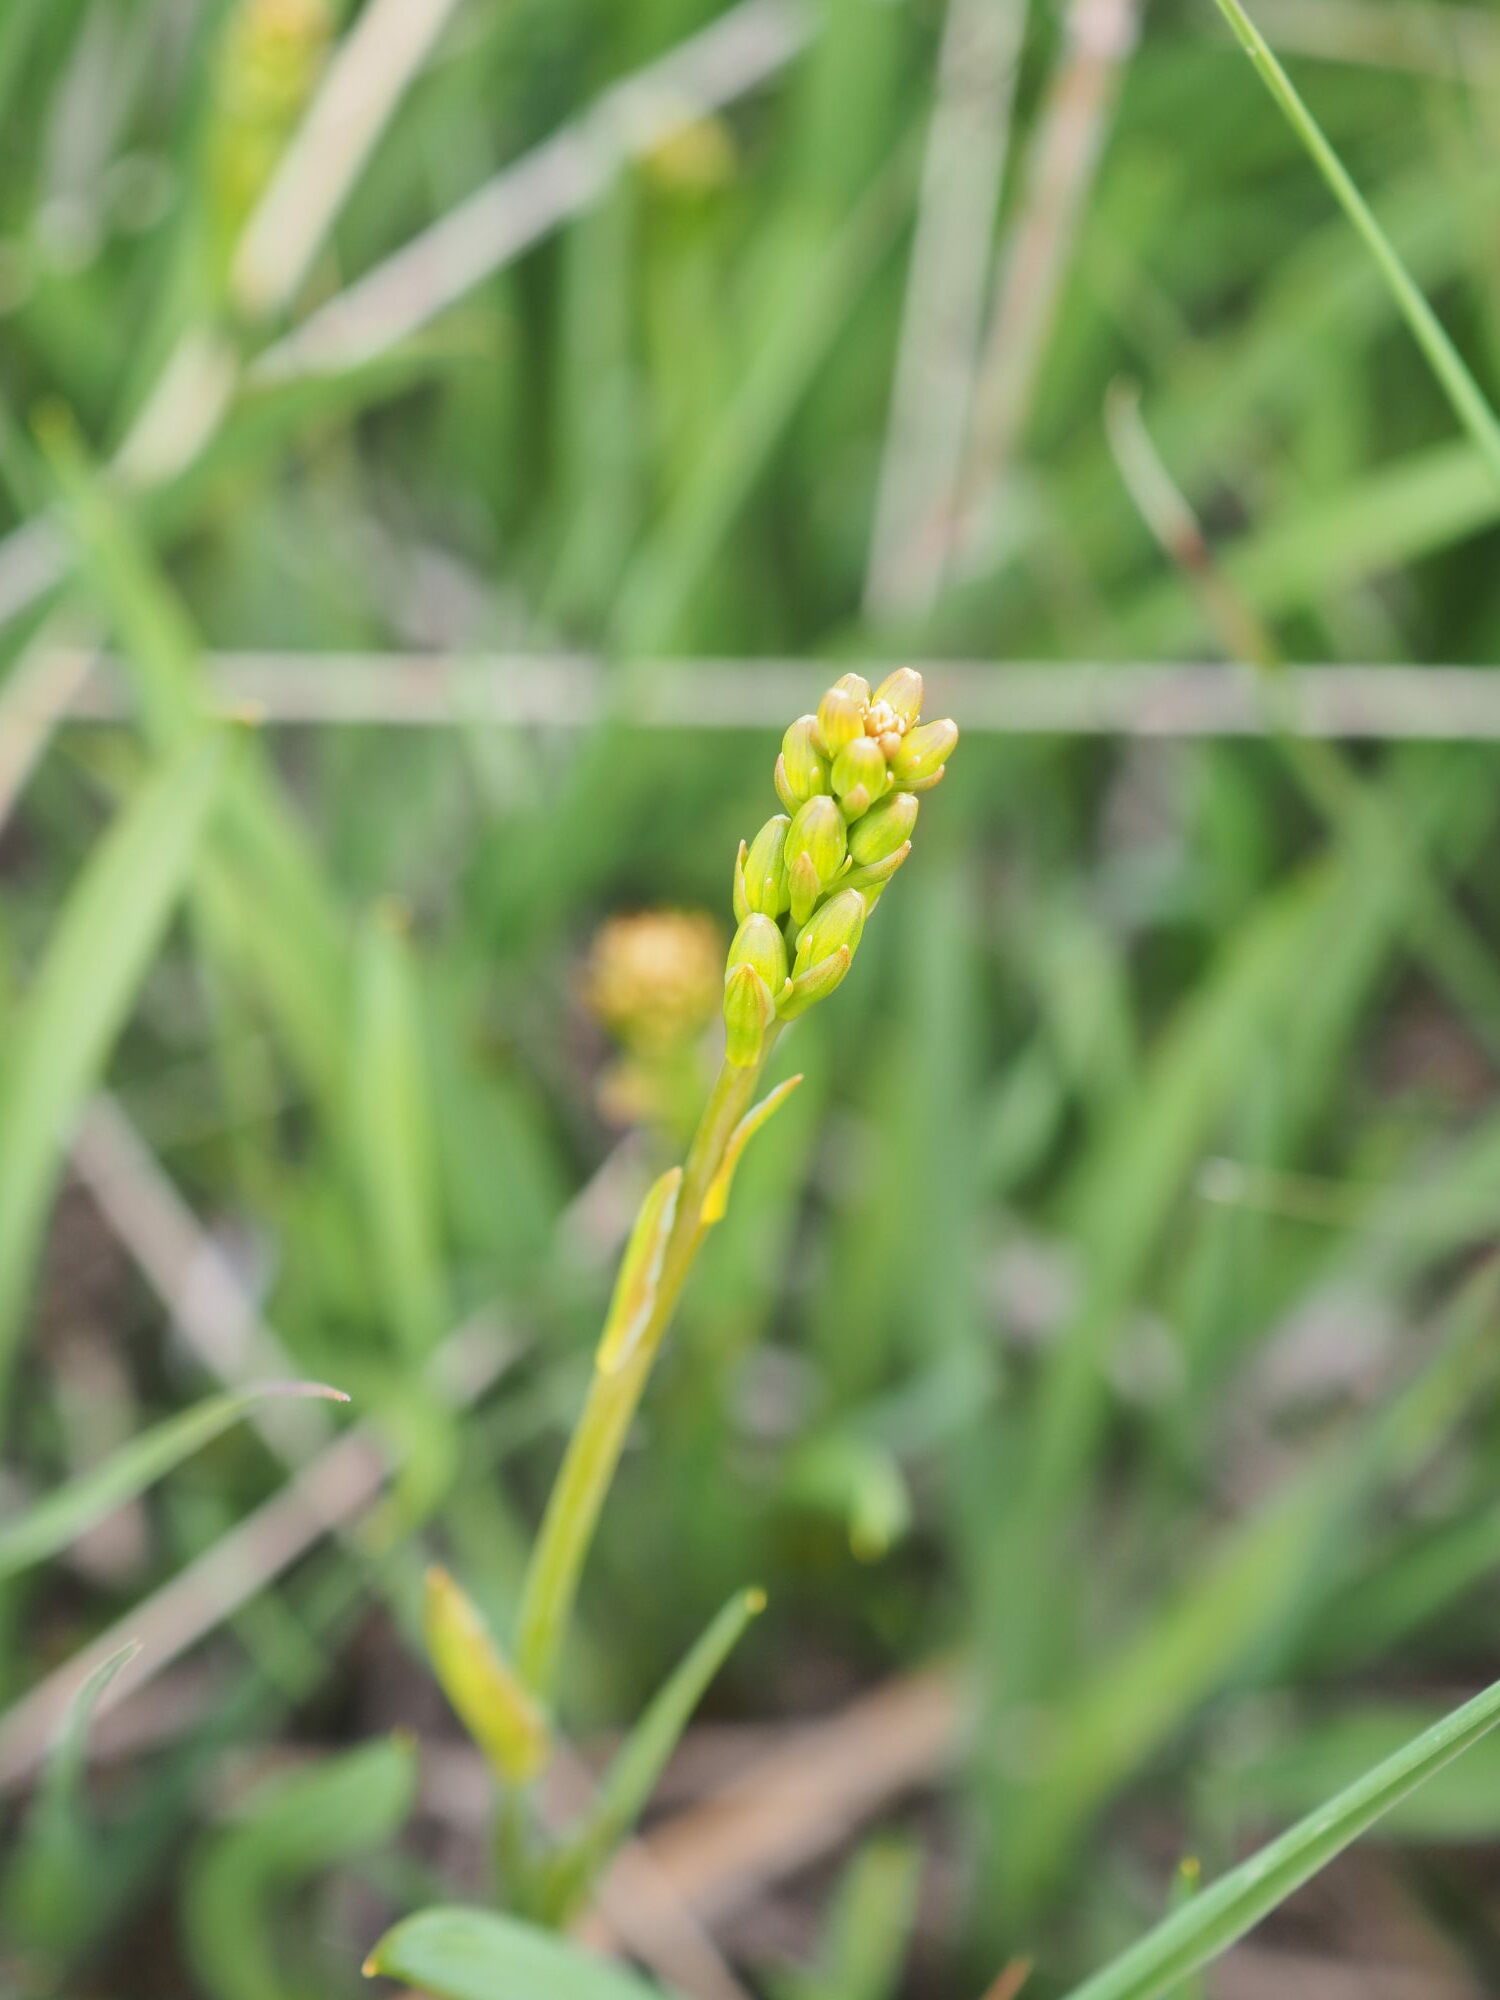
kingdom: Plantae
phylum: Tracheophyta
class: Liliopsida
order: Dioscoreales
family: Nartheciaceae
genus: Narthecium
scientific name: Narthecium ossifragum
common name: Bog asphodel
